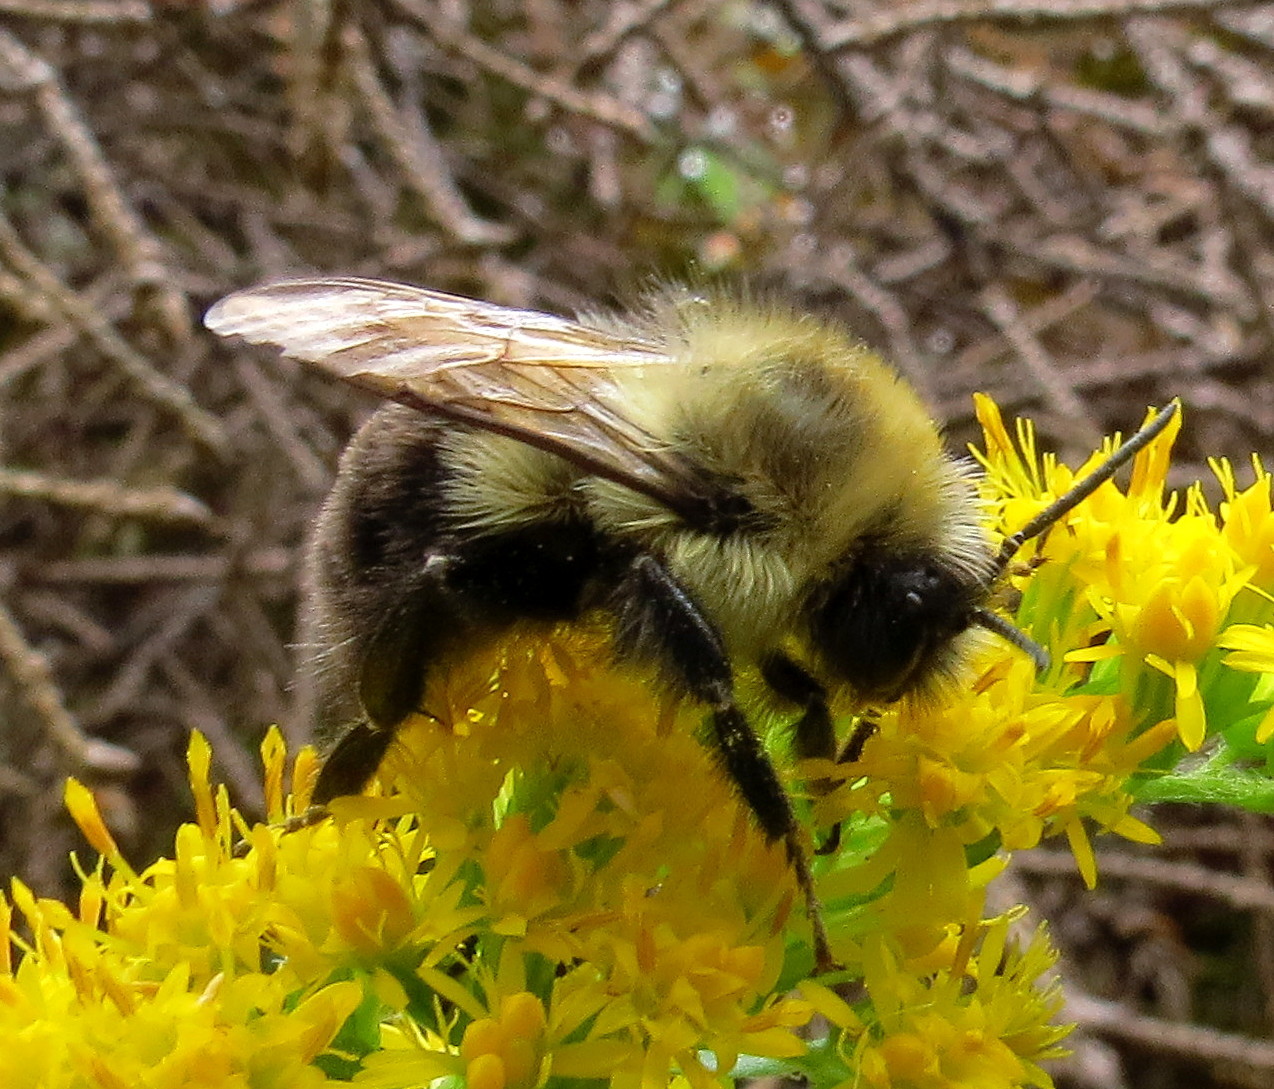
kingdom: Animalia
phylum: Arthropoda
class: Insecta
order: Hymenoptera
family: Apidae
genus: Bombus
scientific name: Bombus impatiens
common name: Common eastern bumble bee
